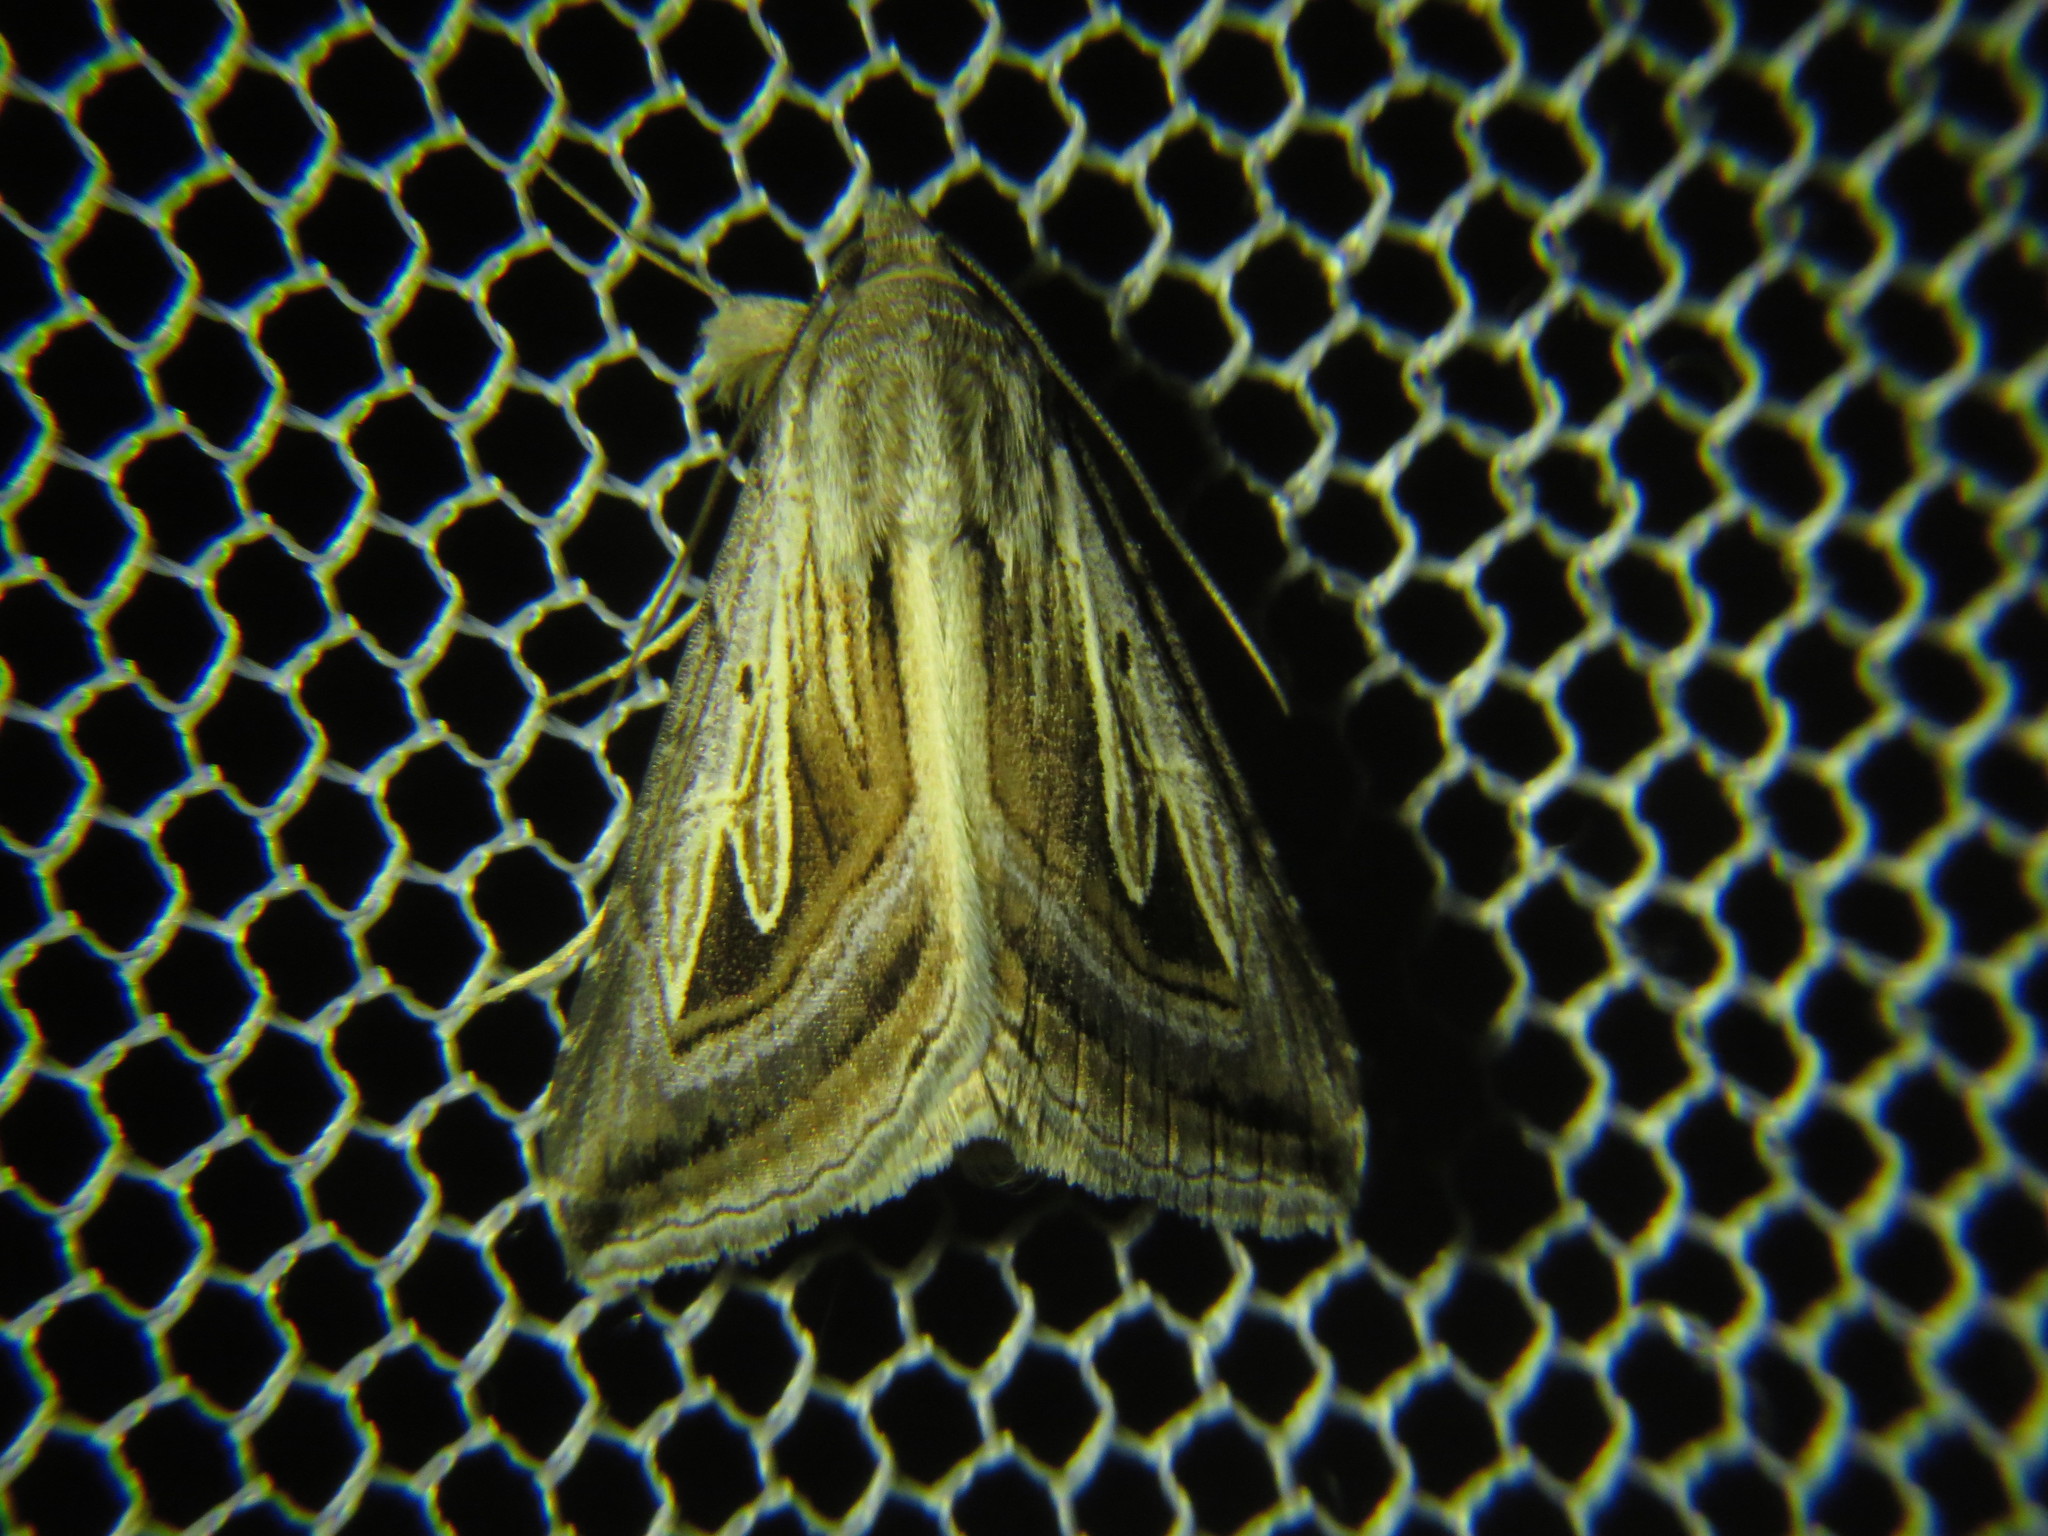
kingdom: Animalia
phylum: Arthropoda
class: Insecta
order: Lepidoptera
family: Erebidae
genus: Heteropygas
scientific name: Heteropygas ziczac
